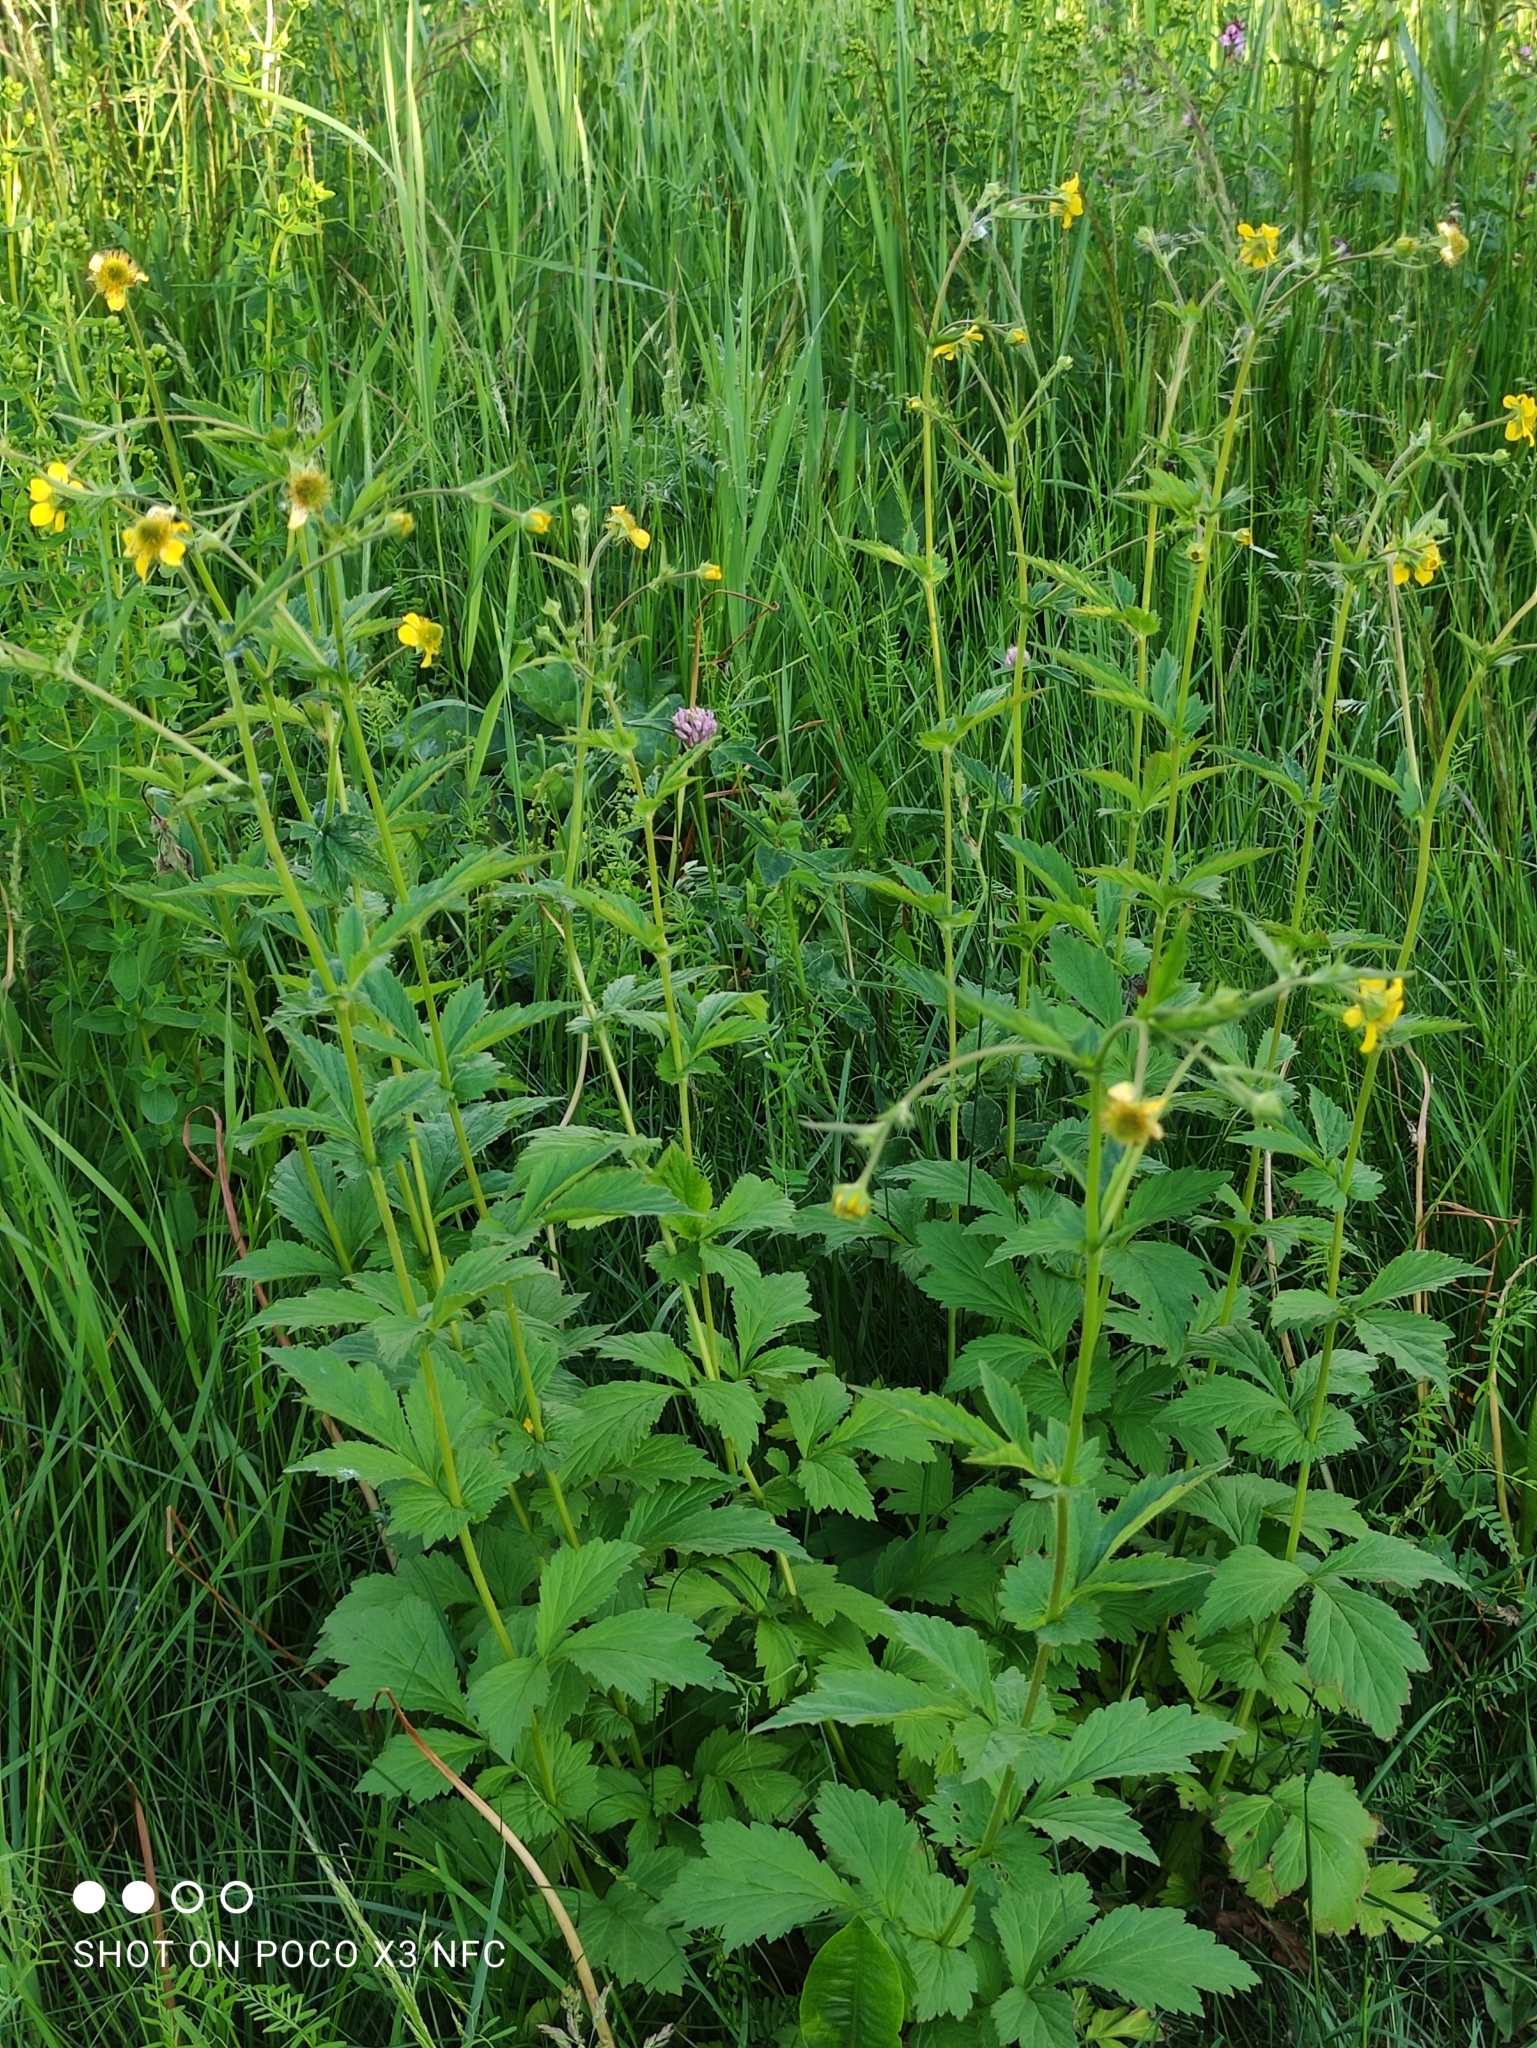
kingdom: Plantae
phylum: Tracheophyta
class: Magnoliopsida
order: Rosales
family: Rosaceae
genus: Geum
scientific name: Geum intermedium
